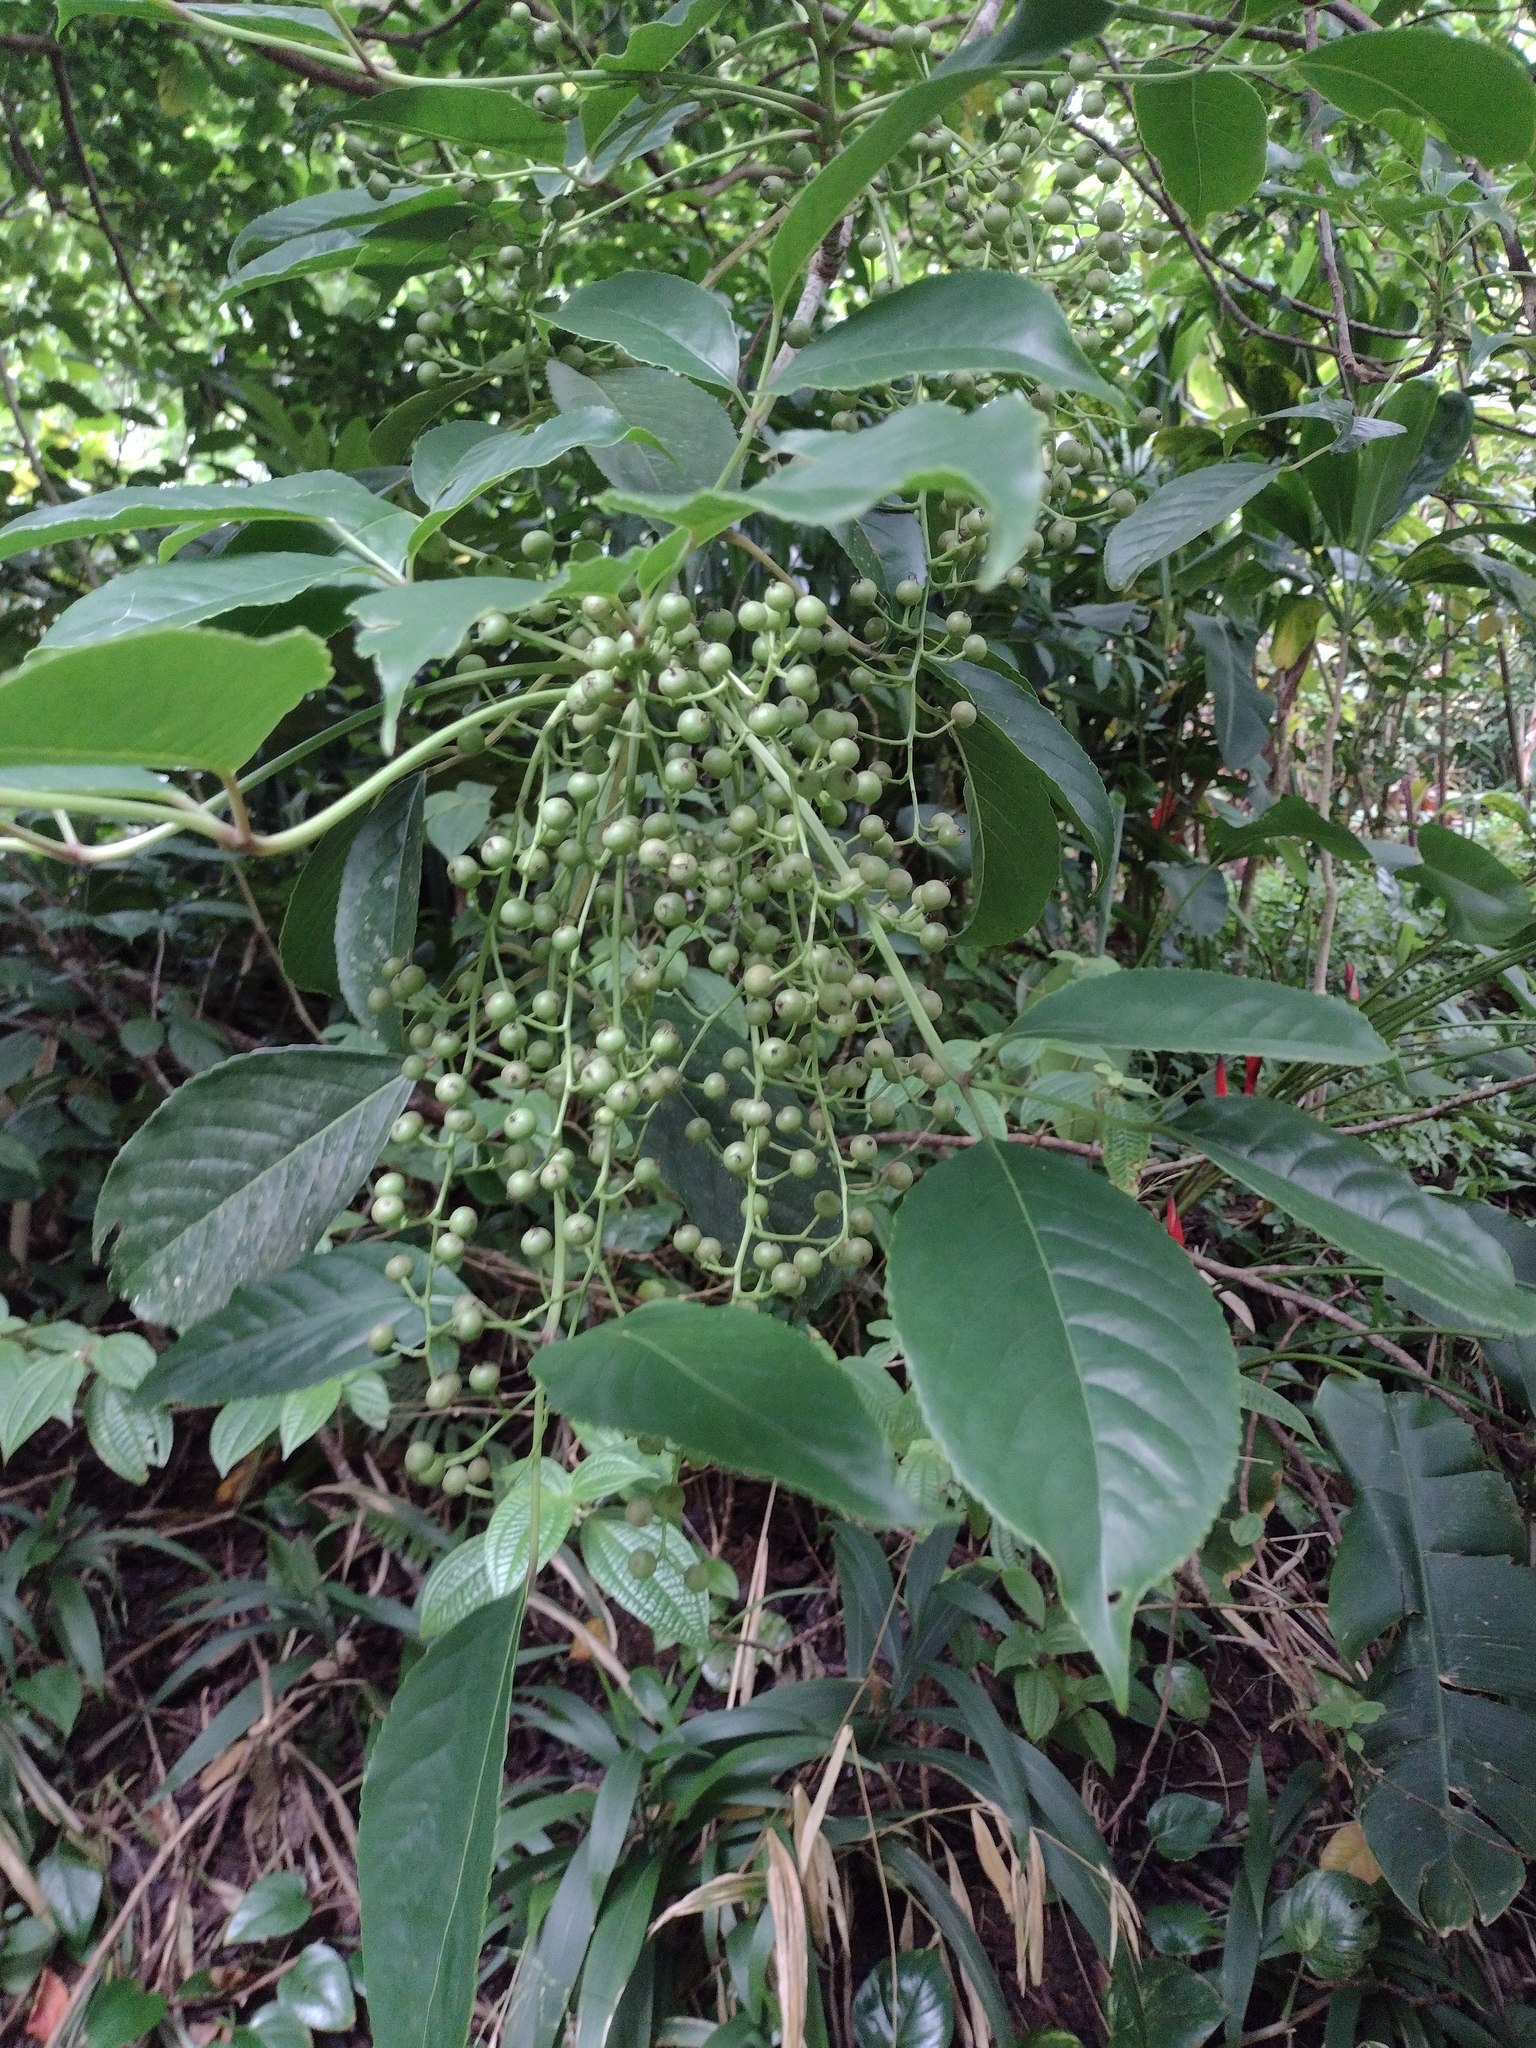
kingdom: Plantae
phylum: Tracheophyta
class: Magnoliopsida
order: Malpighiales
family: Phyllanthaceae
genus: Bischofia
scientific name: Bischofia javanica
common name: Javanese bishopwood
